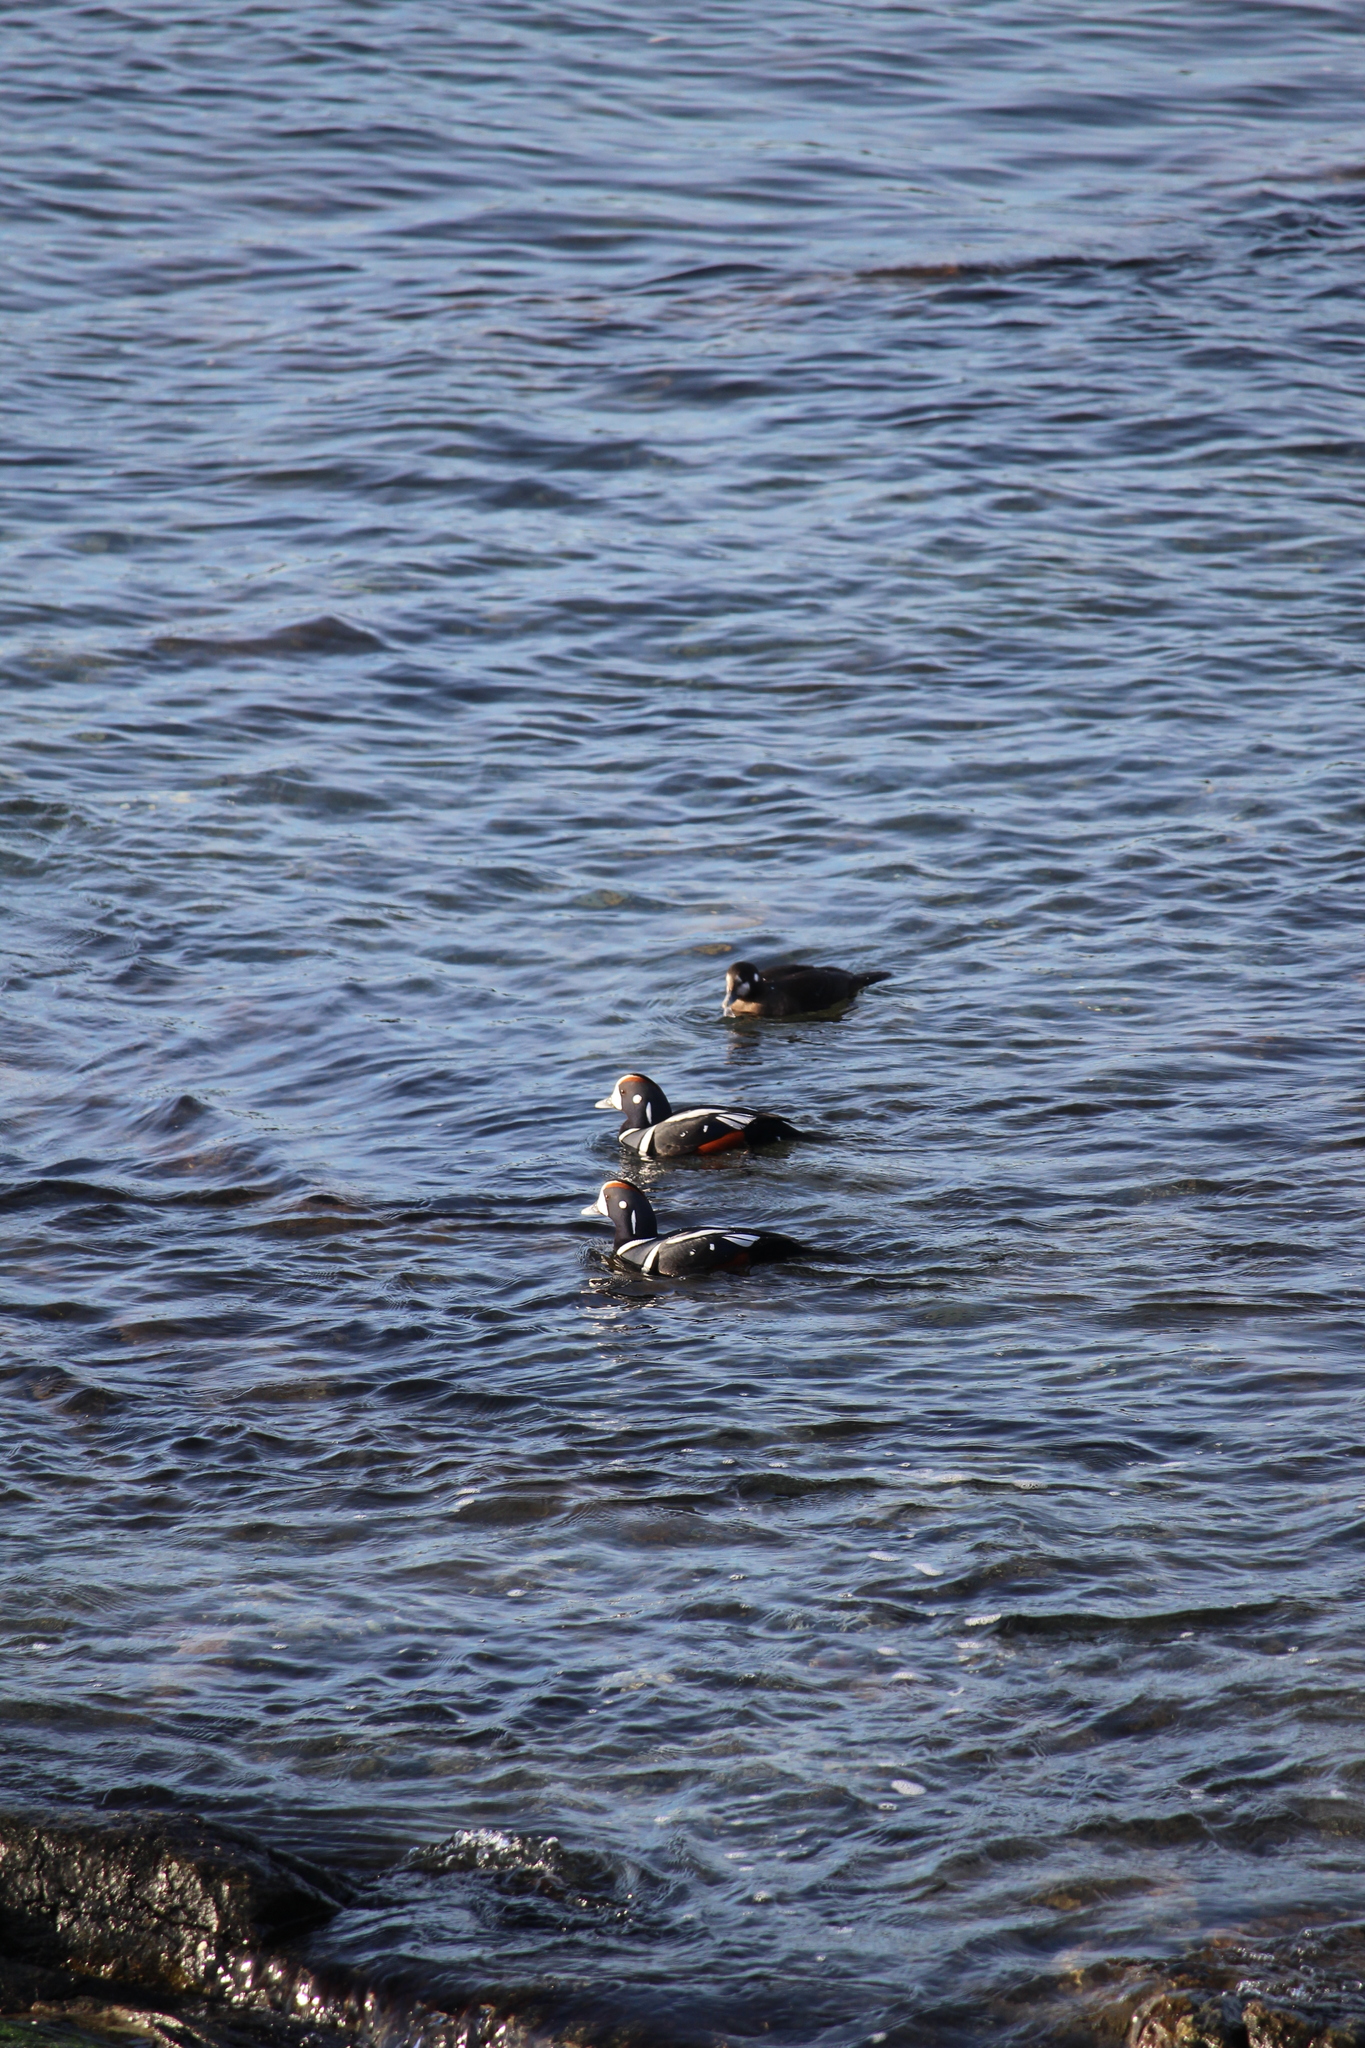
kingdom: Animalia
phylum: Chordata
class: Aves
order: Anseriformes
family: Anatidae
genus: Histrionicus
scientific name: Histrionicus histrionicus
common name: Harlequin duck
